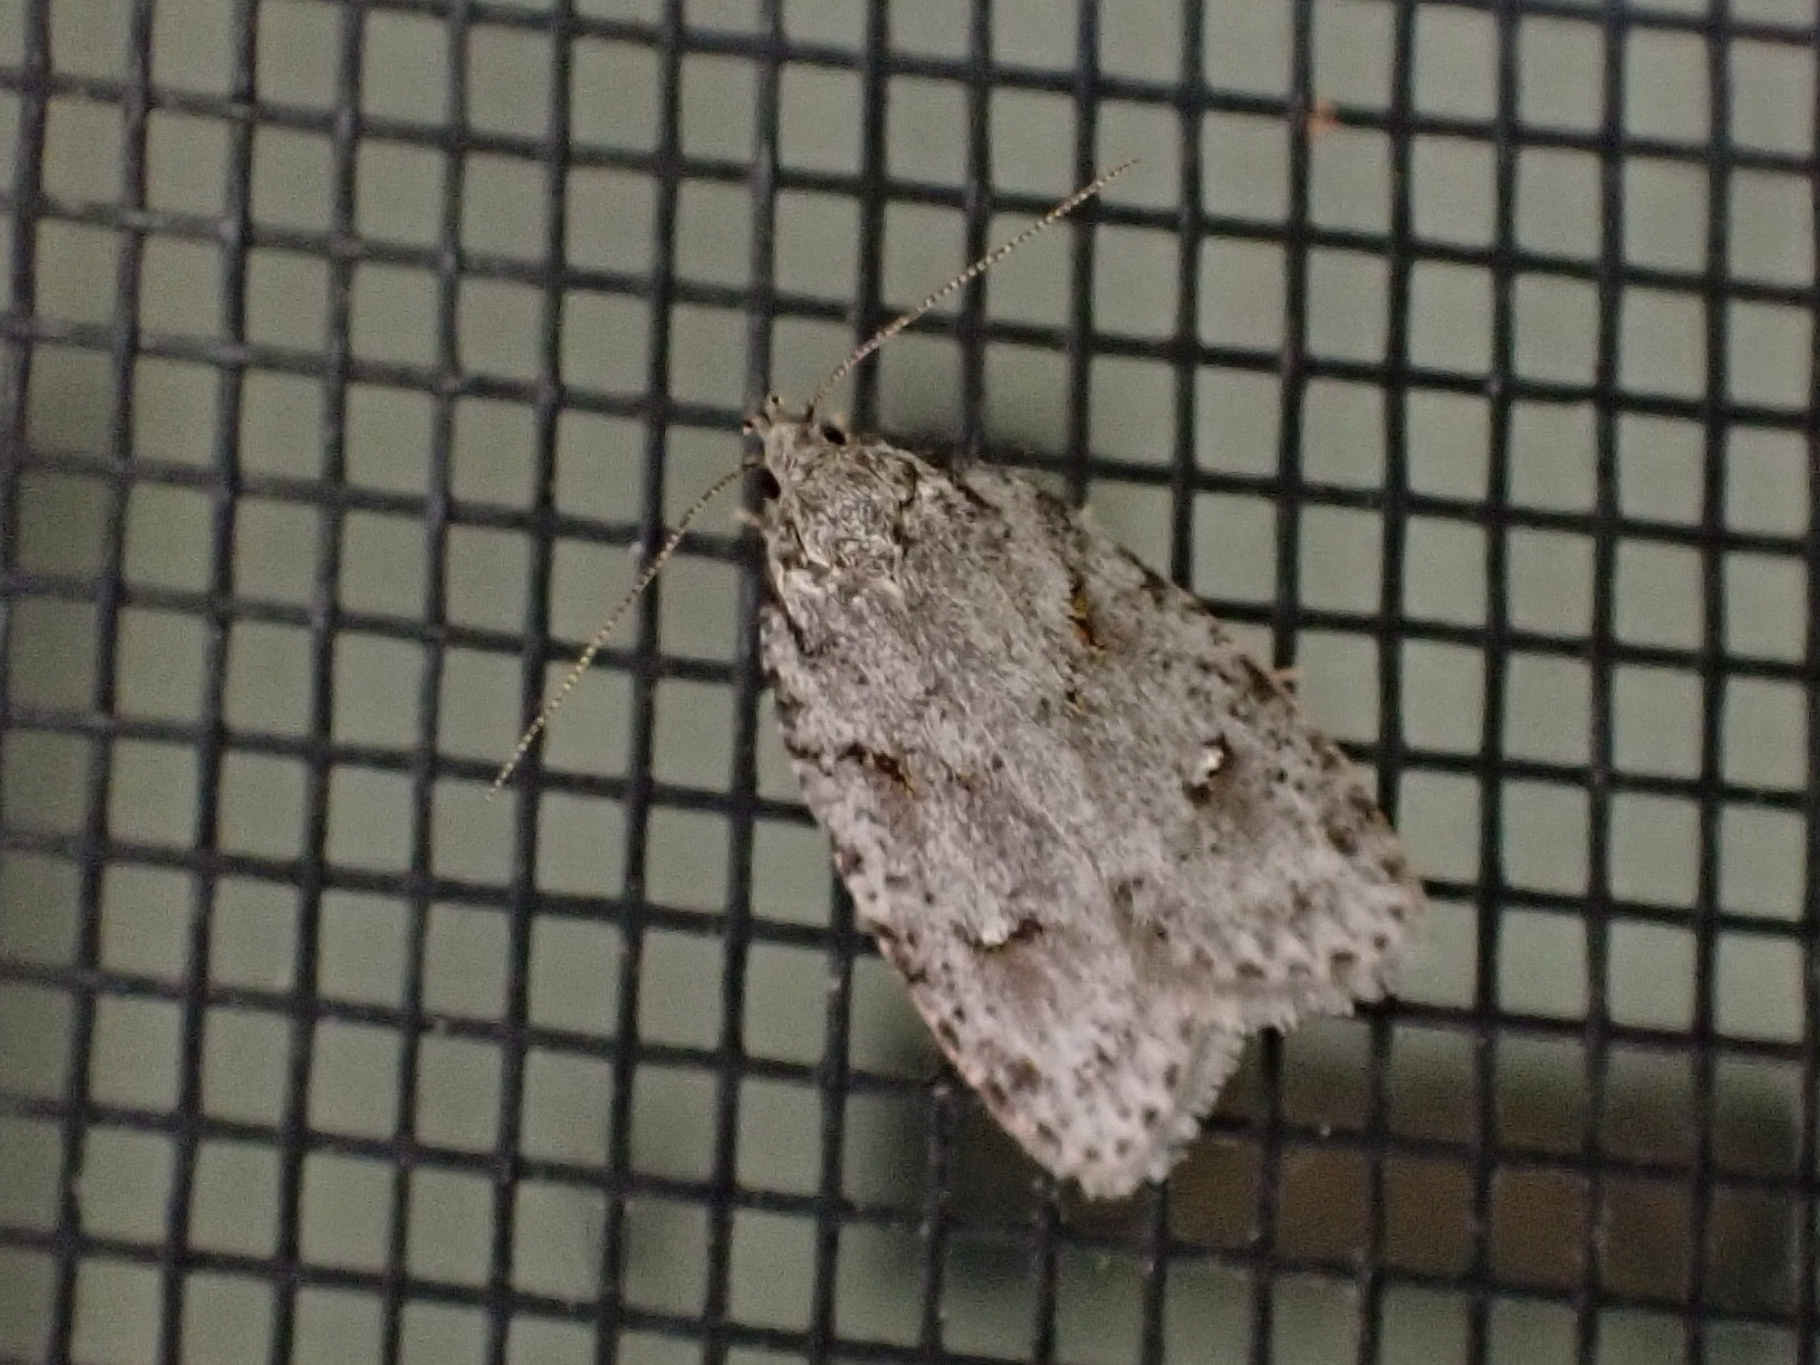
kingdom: Animalia
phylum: Arthropoda
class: Insecta
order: Lepidoptera
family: Depressariidae
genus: Bibarrambla
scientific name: Bibarrambla allenella
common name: Bog bibarrambla moth
